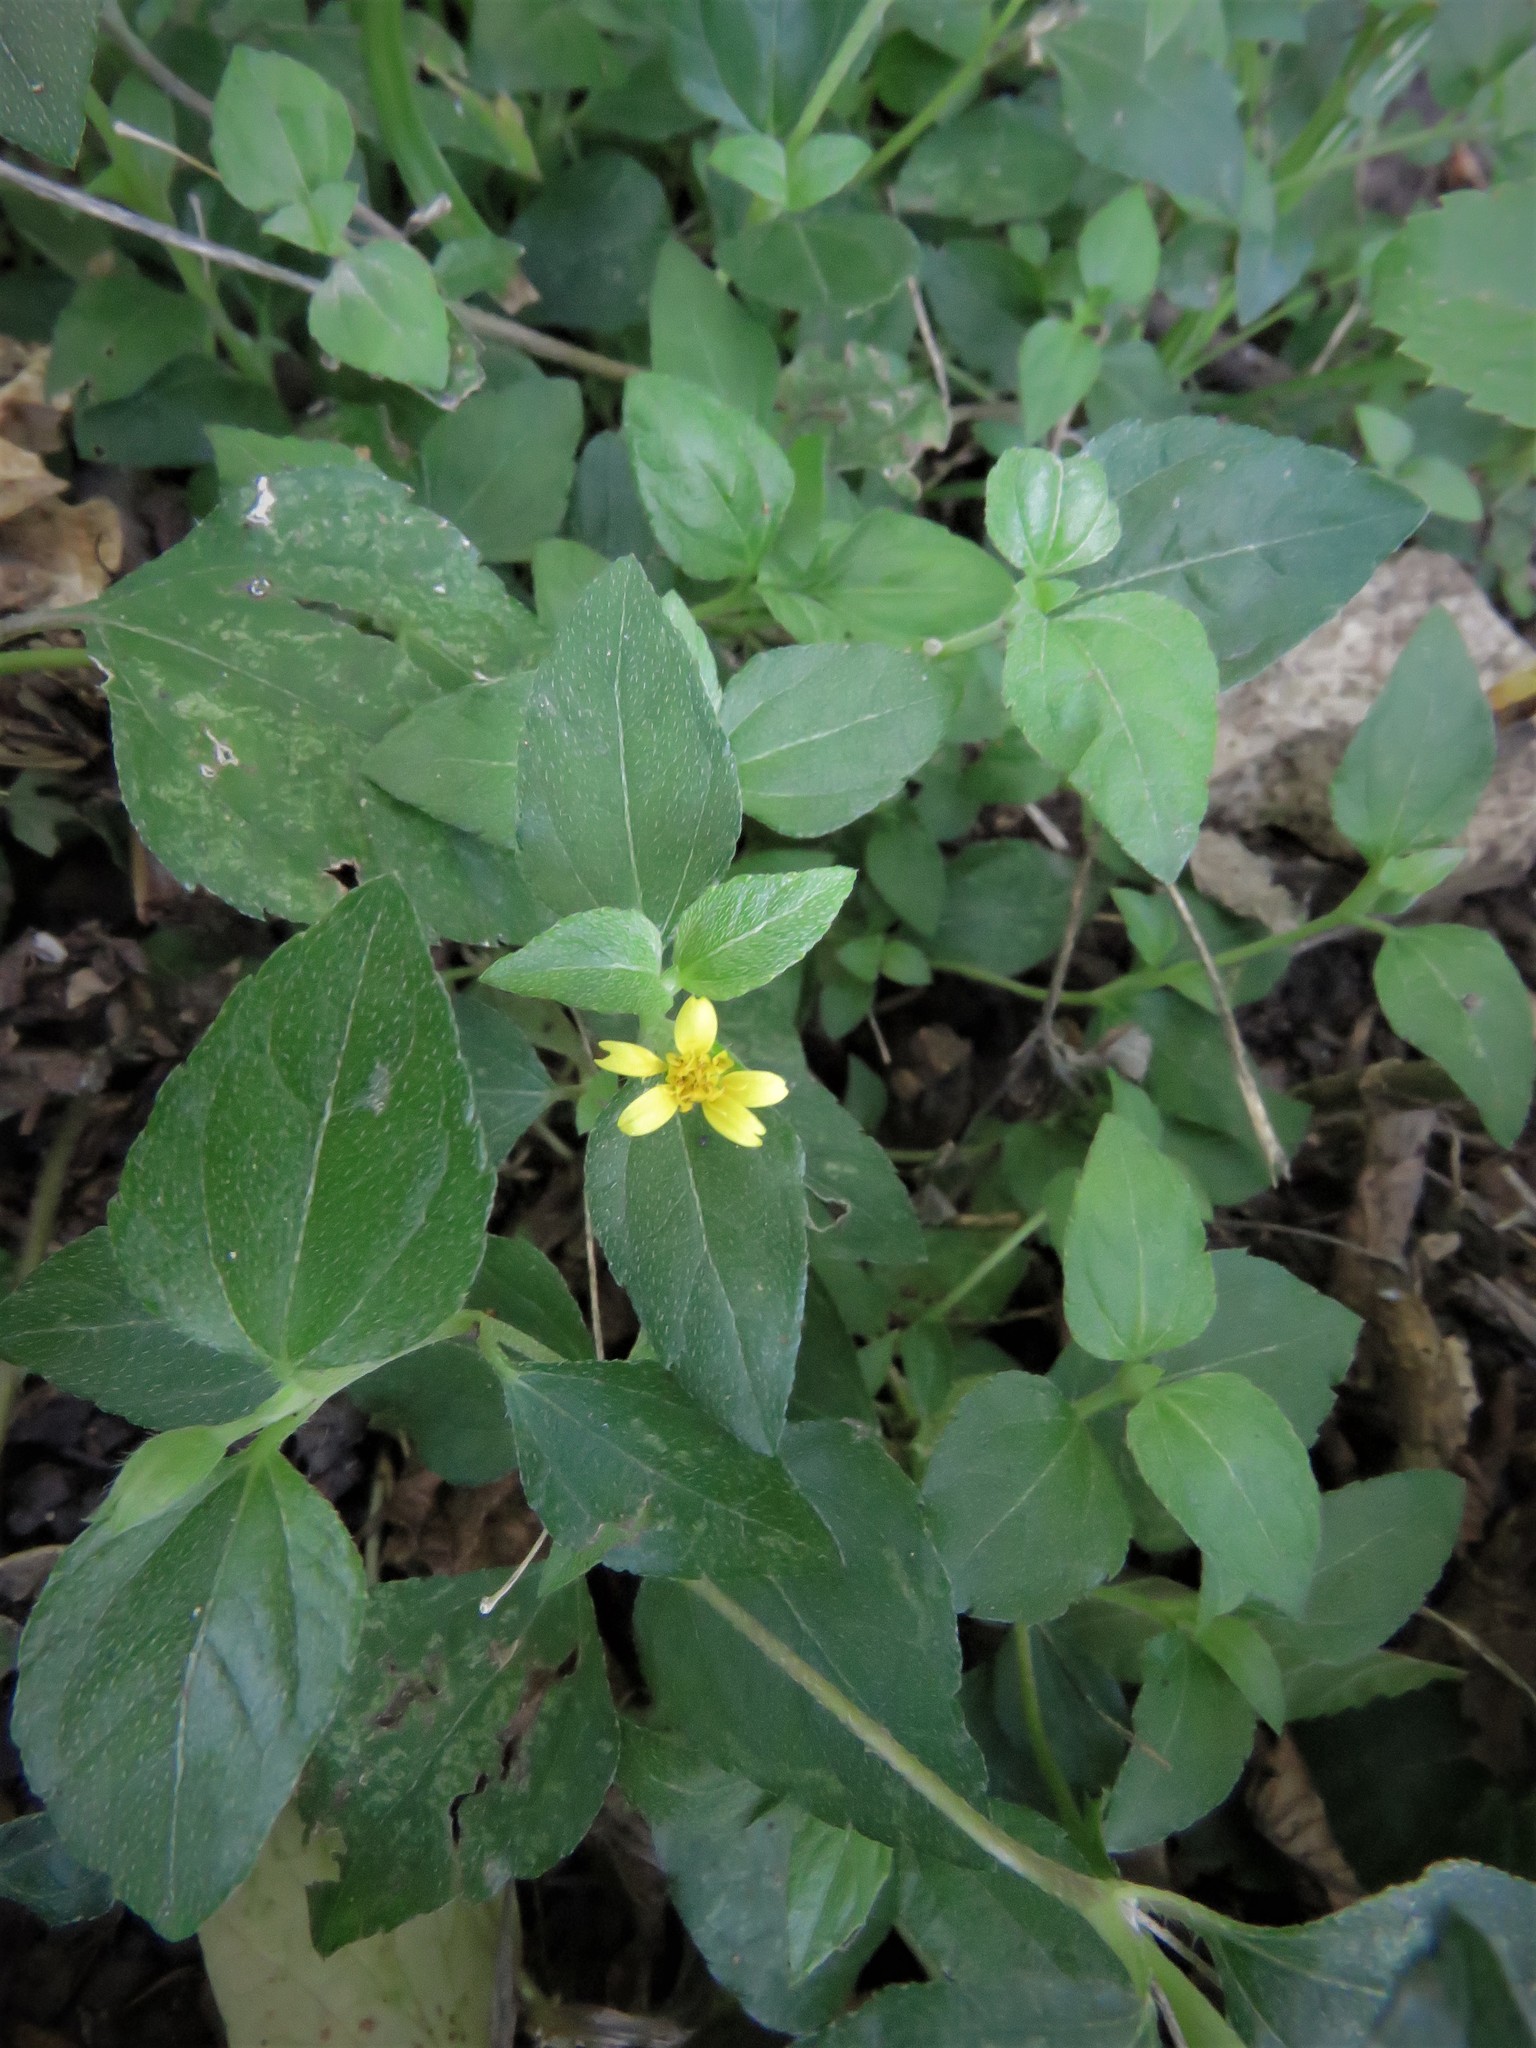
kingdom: Plantae
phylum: Tracheophyta
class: Magnoliopsida
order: Asterales
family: Asteraceae
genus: Calyptocarpus
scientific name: Calyptocarpus vialis
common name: Straggler daisy
